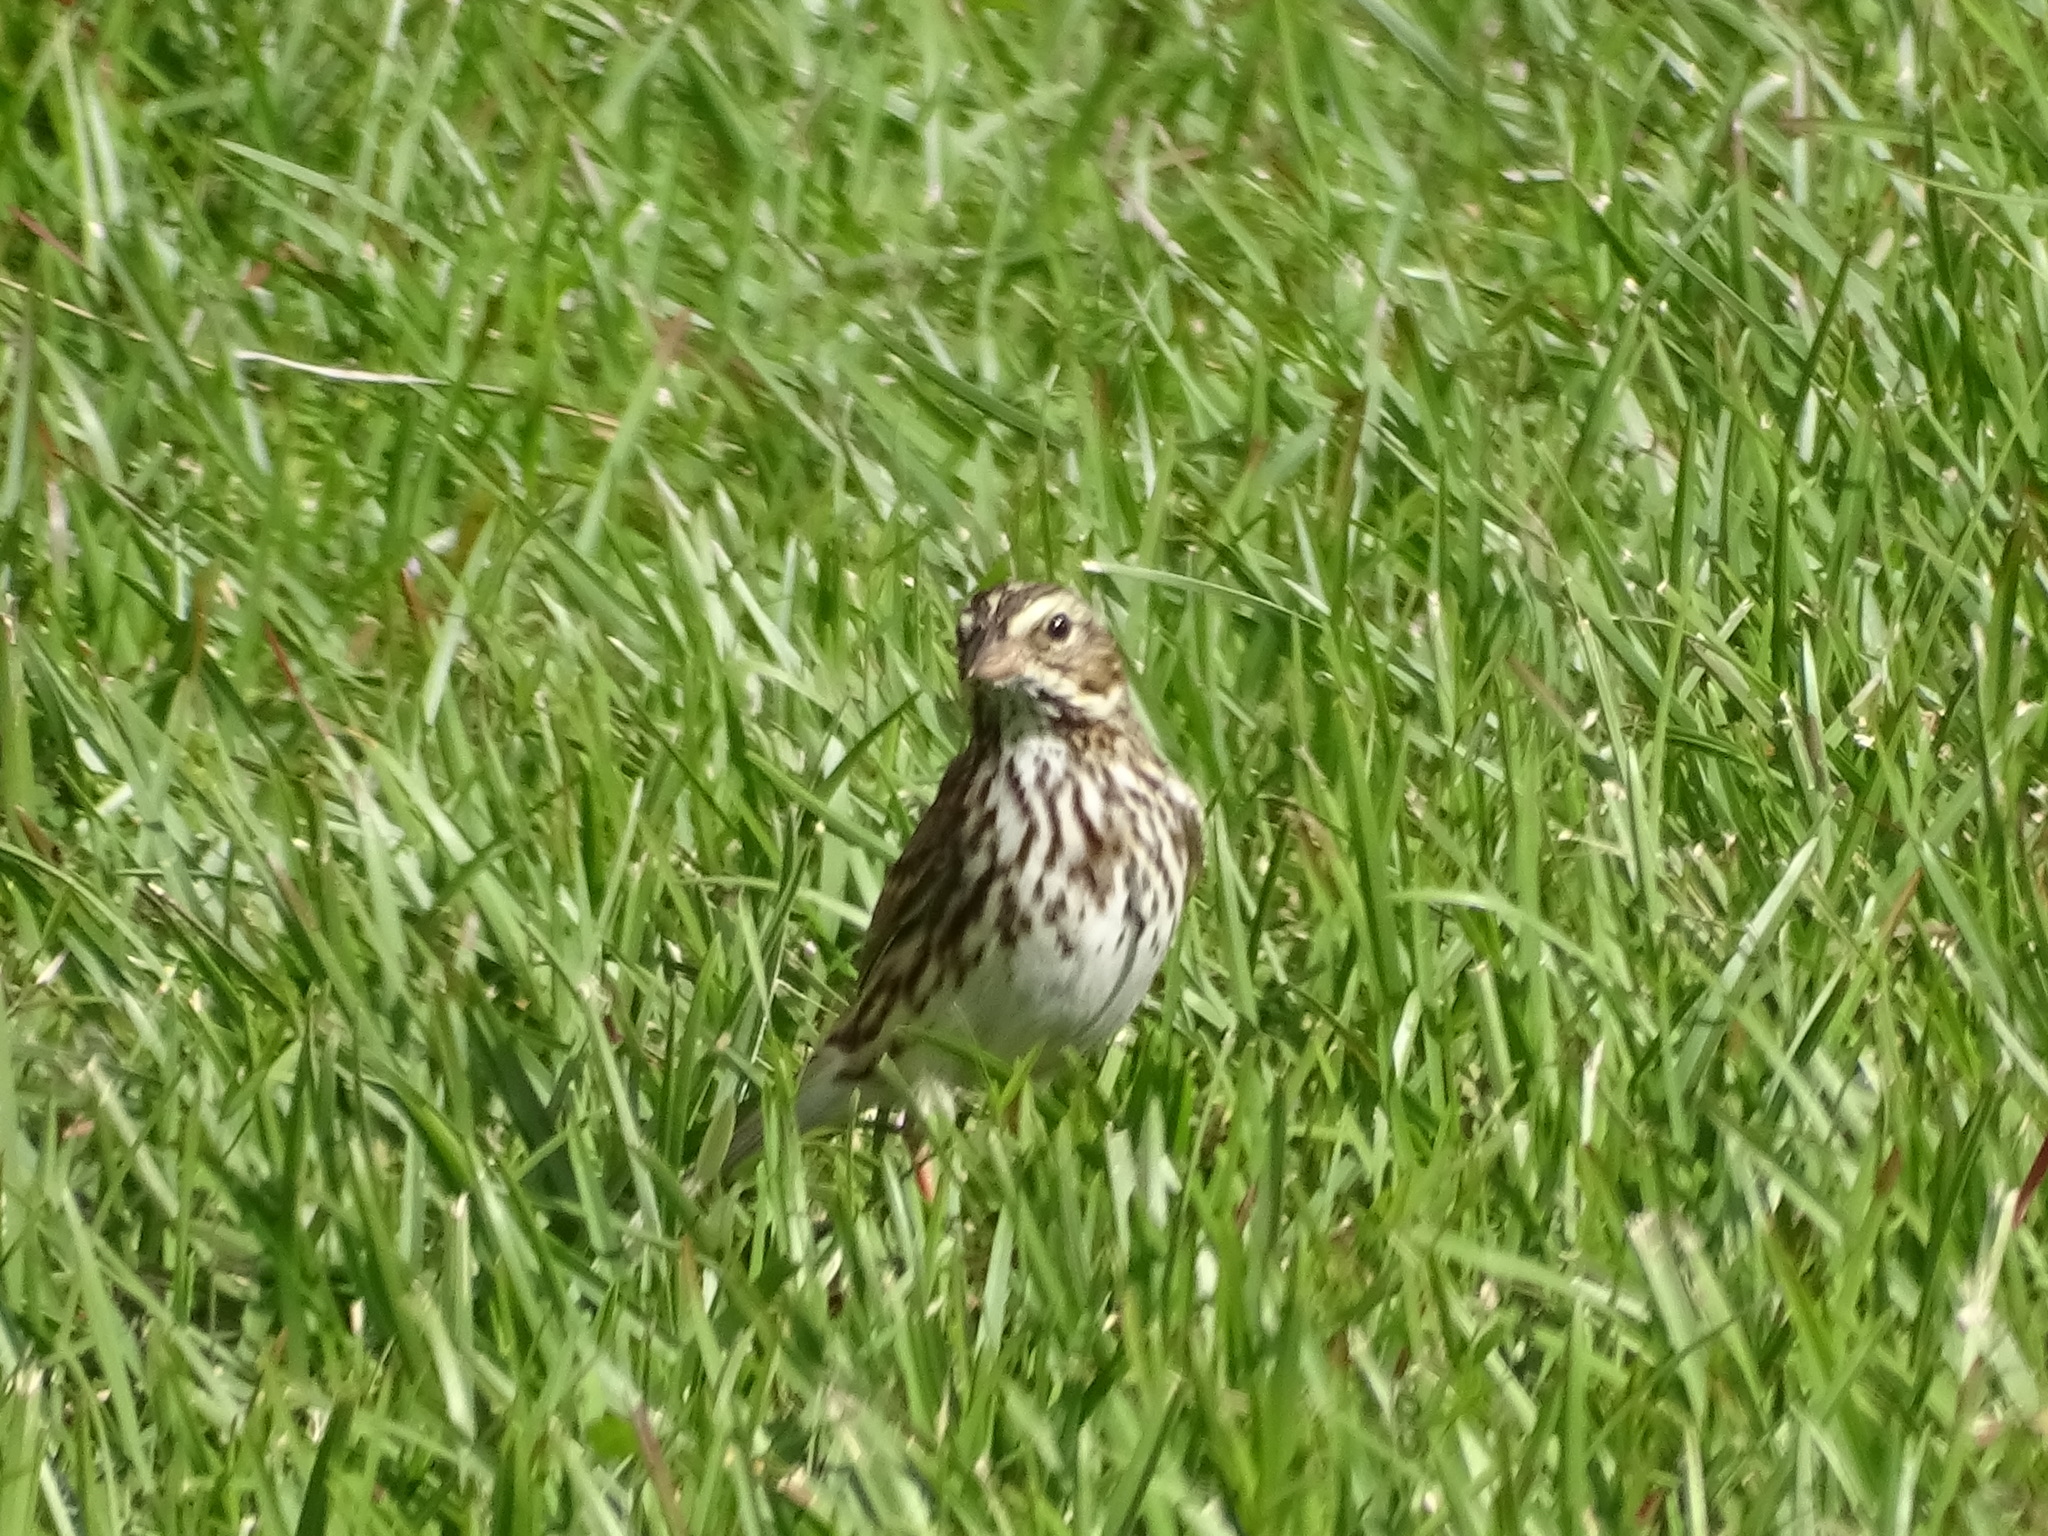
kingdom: Animalia
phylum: Chordata
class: Aves
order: Passeriformes
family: Passerellidae
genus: Passerculus
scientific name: Passerculus sandwichensis
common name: Savannah sparrow
